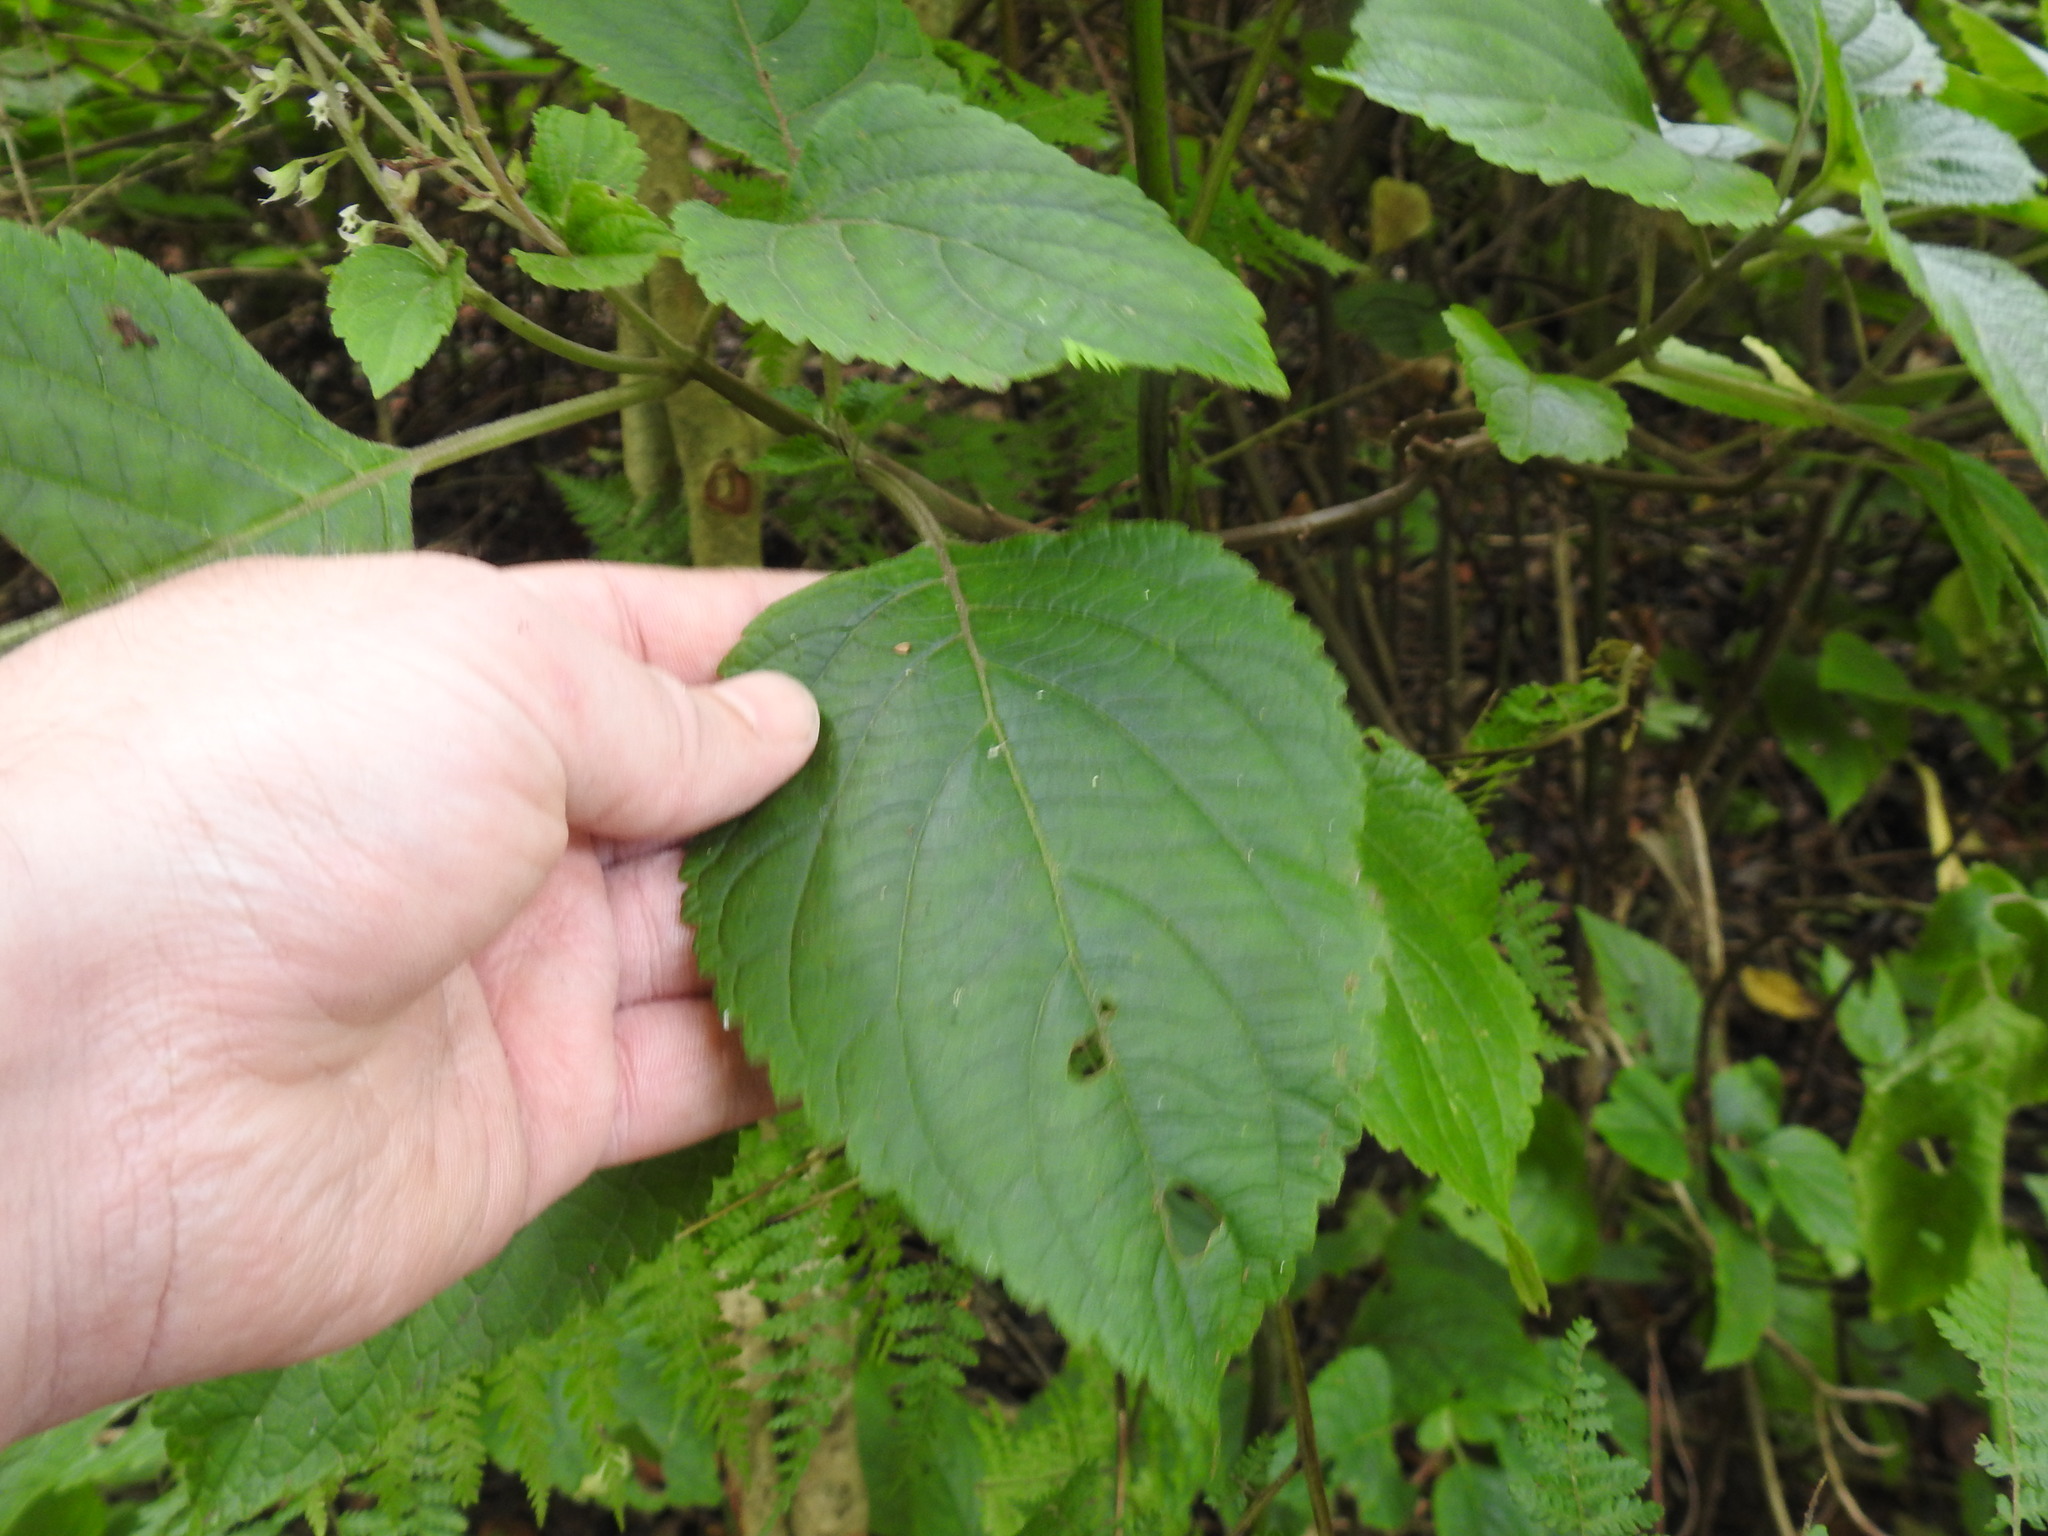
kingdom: Plantae
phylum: Tracheophyta
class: Magnoliopsida
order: Lamiales
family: Lamiaceae
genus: Plectranthus
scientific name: Plectranthus fruticosus
